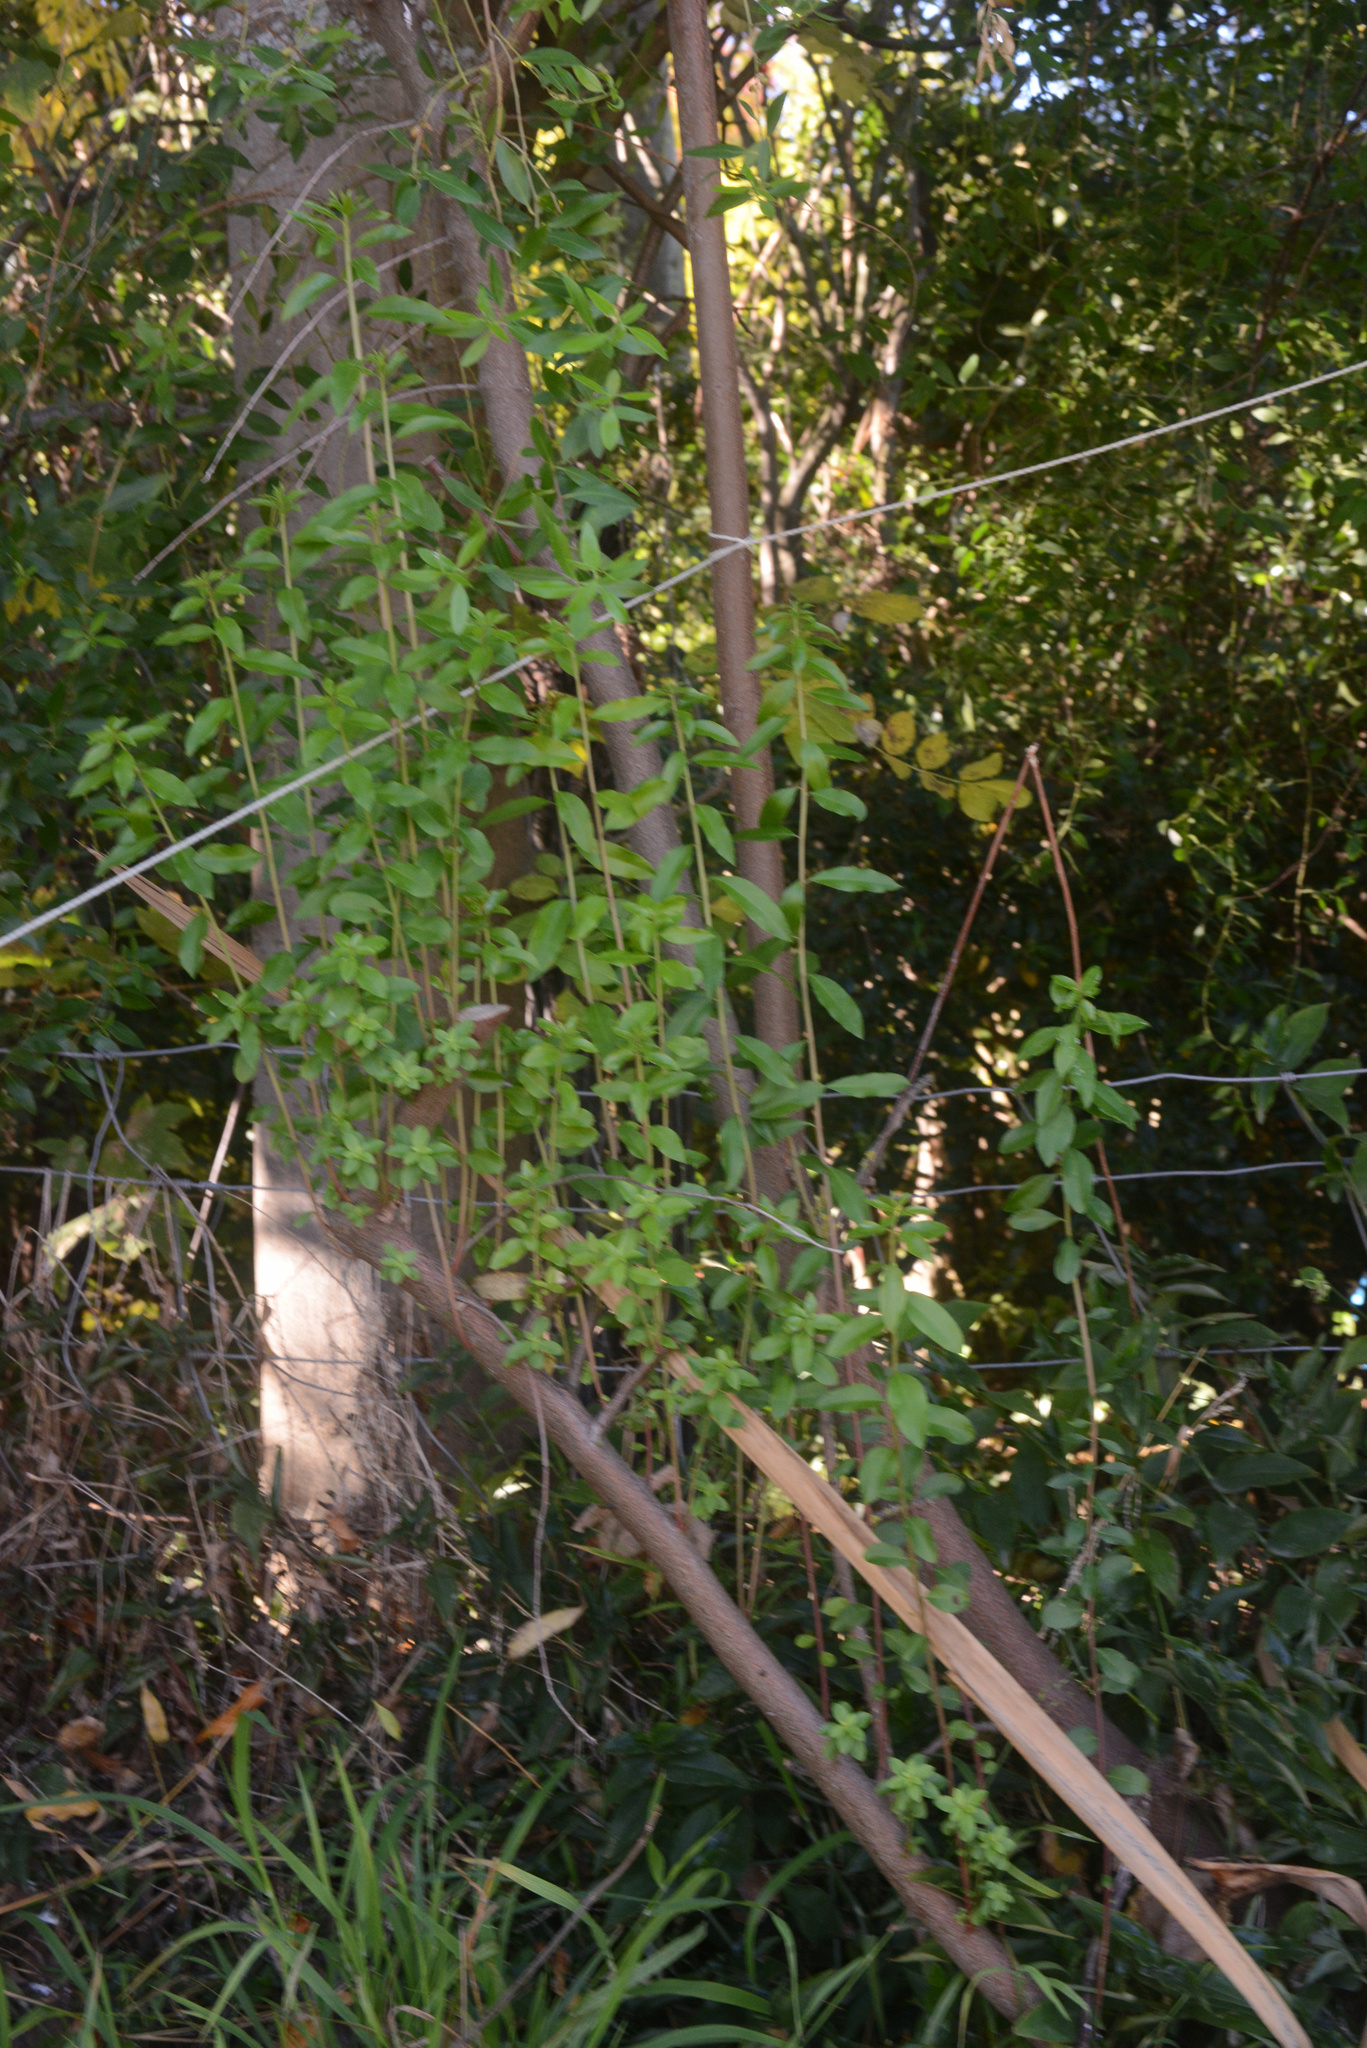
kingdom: Plantae
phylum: Tracheophyta
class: Magnoliopsida
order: Celastrales
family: Celastraceae
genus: Maytenus
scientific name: Maytenus boaria
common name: Mayten
